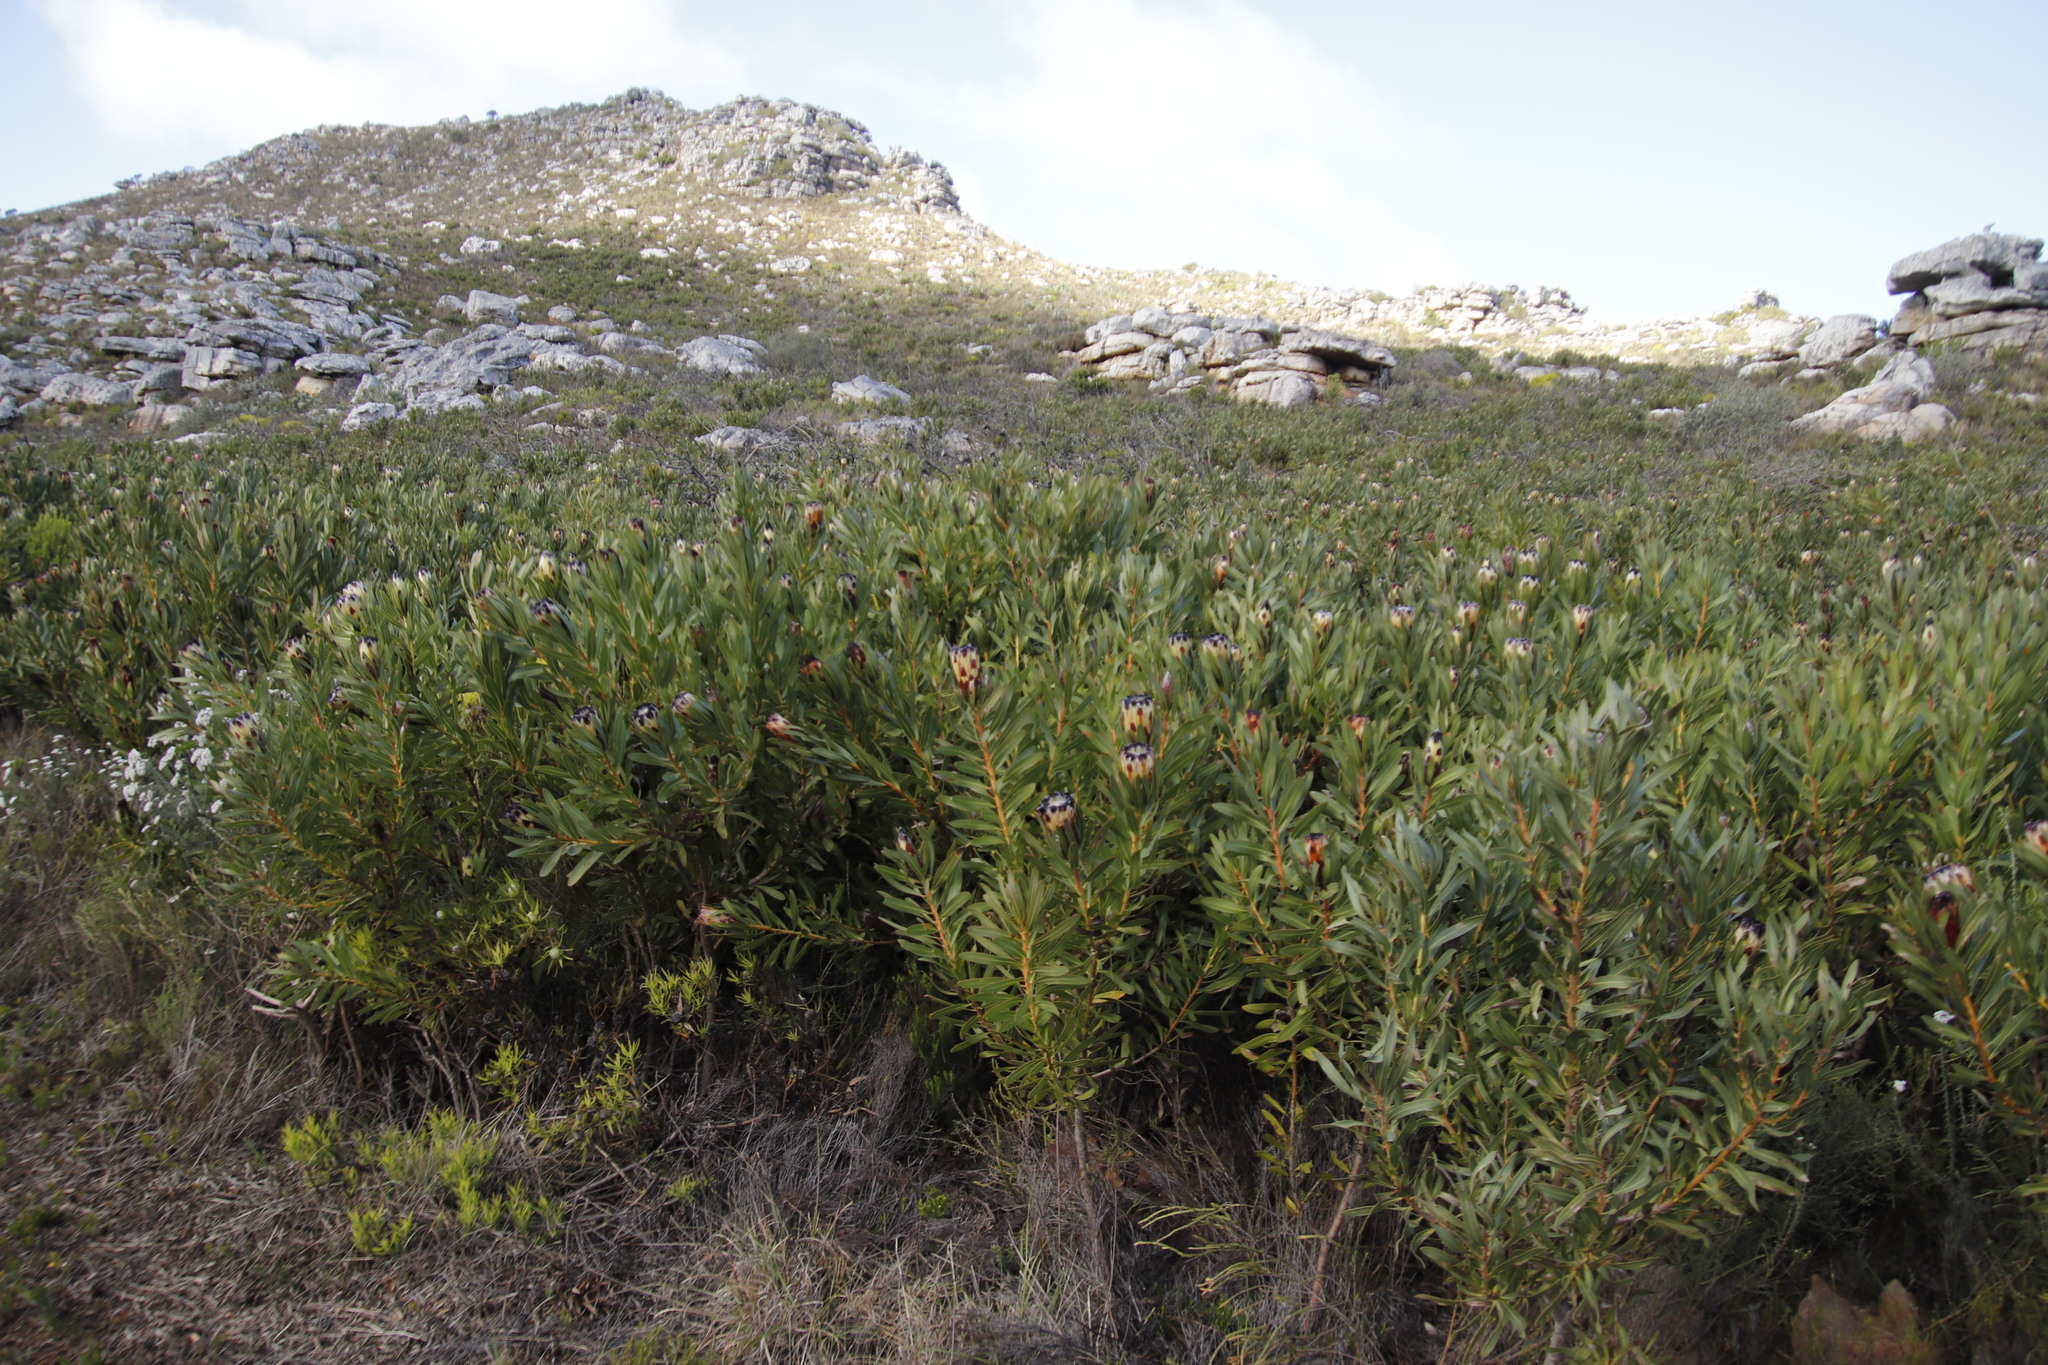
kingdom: Plantae
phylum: Tracheophyta
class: Magnoliopsida
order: Proteales
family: Proteaceae
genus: Protea
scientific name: Protea lepidocarpodendron
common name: Black-bearded protea
